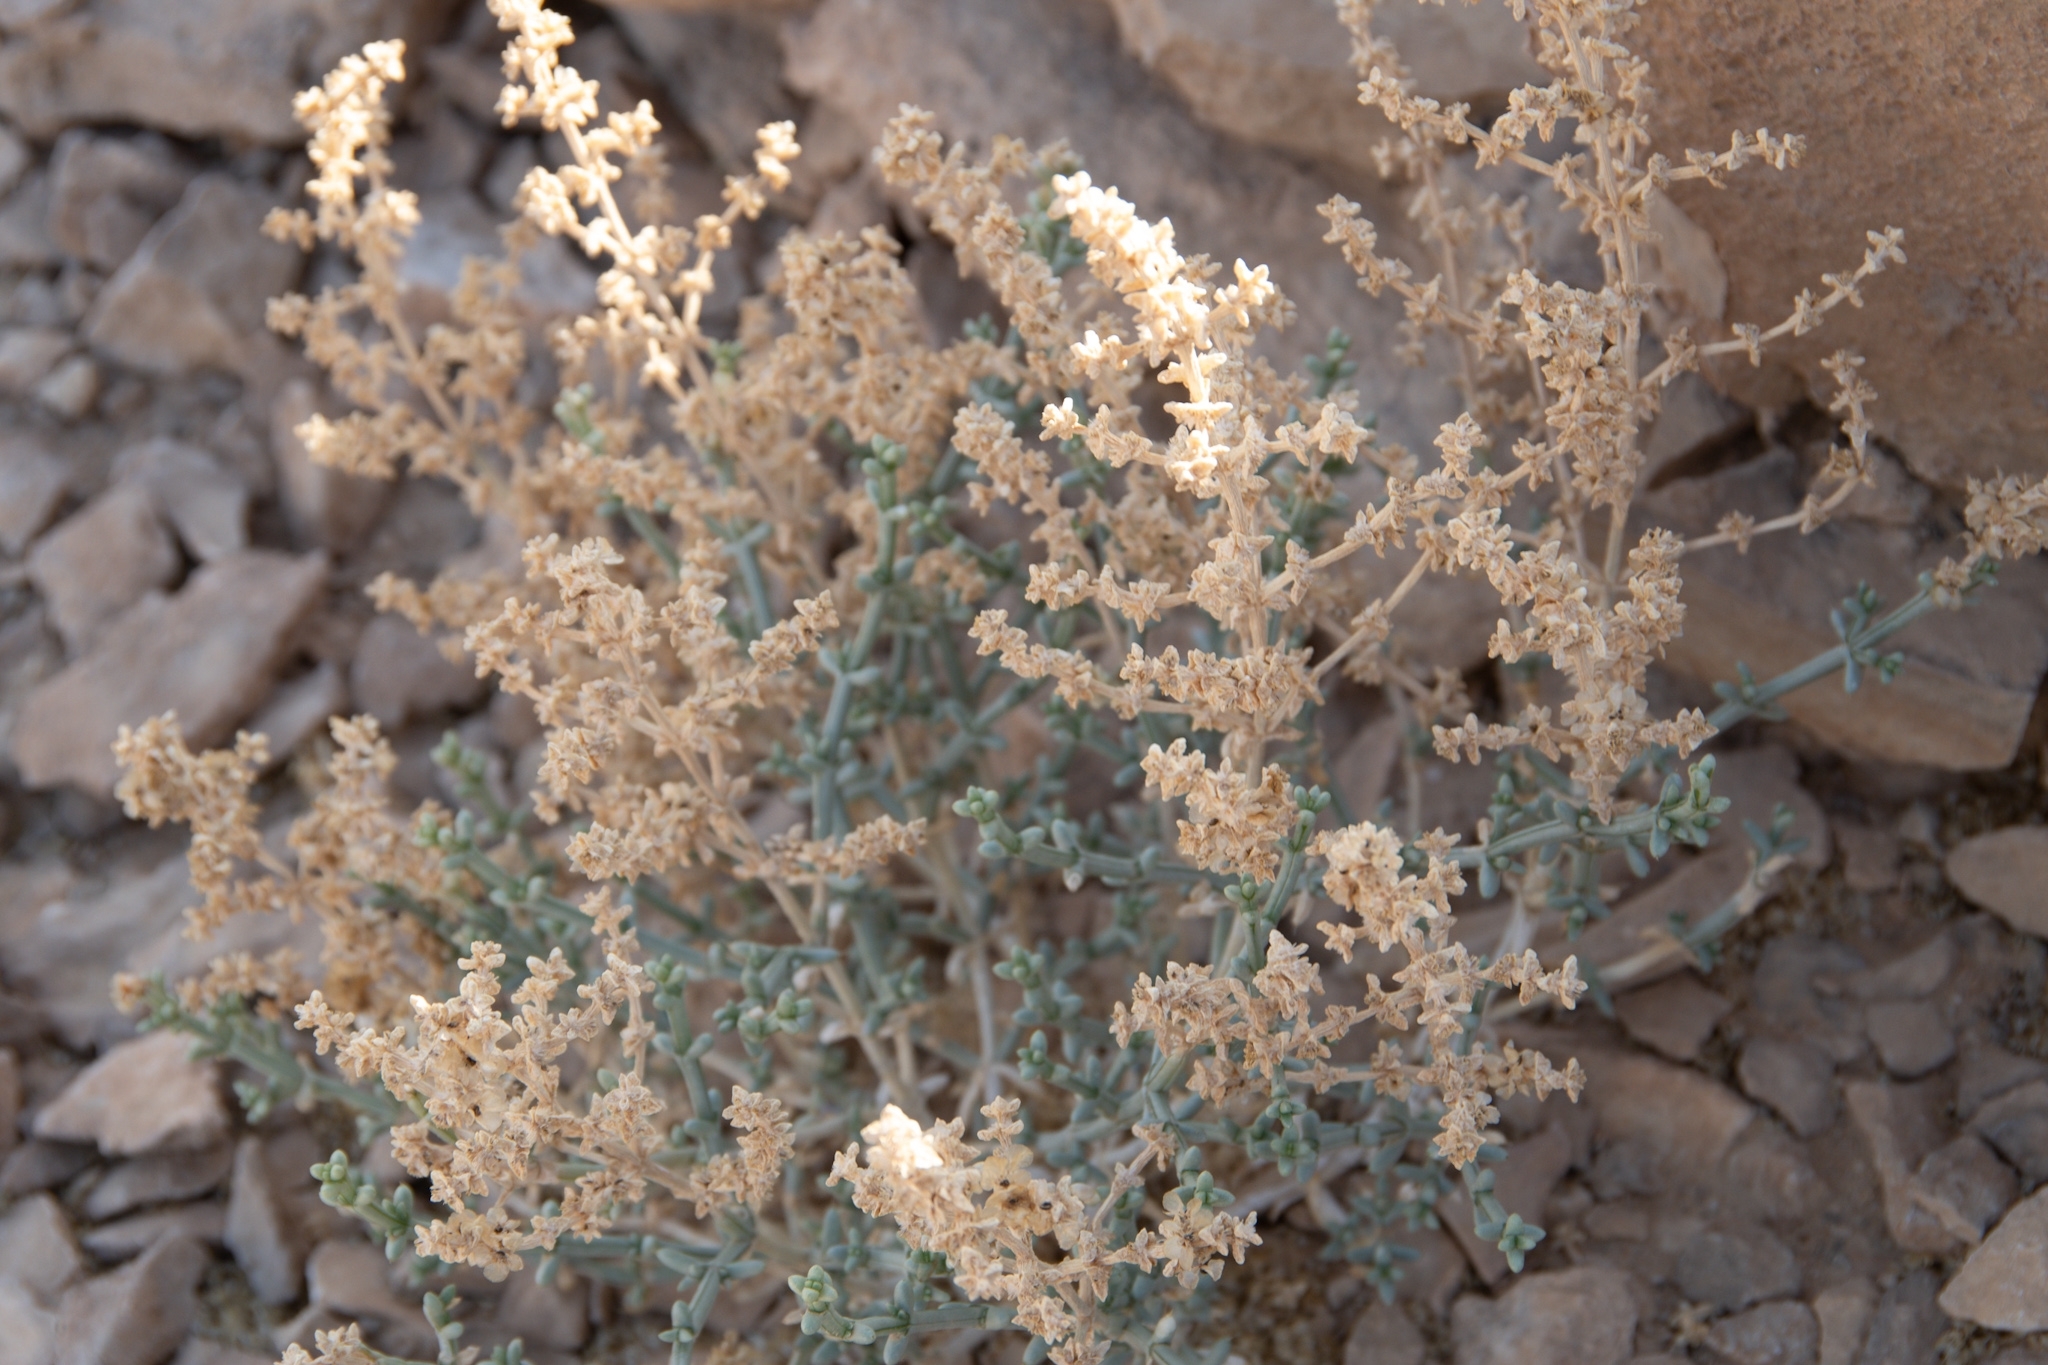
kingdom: Plantae
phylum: Tracheophyta
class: Magnoliopsida
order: Caryophyllales
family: Amaranthaceae
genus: Anabasis
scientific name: Anabasis setifera
